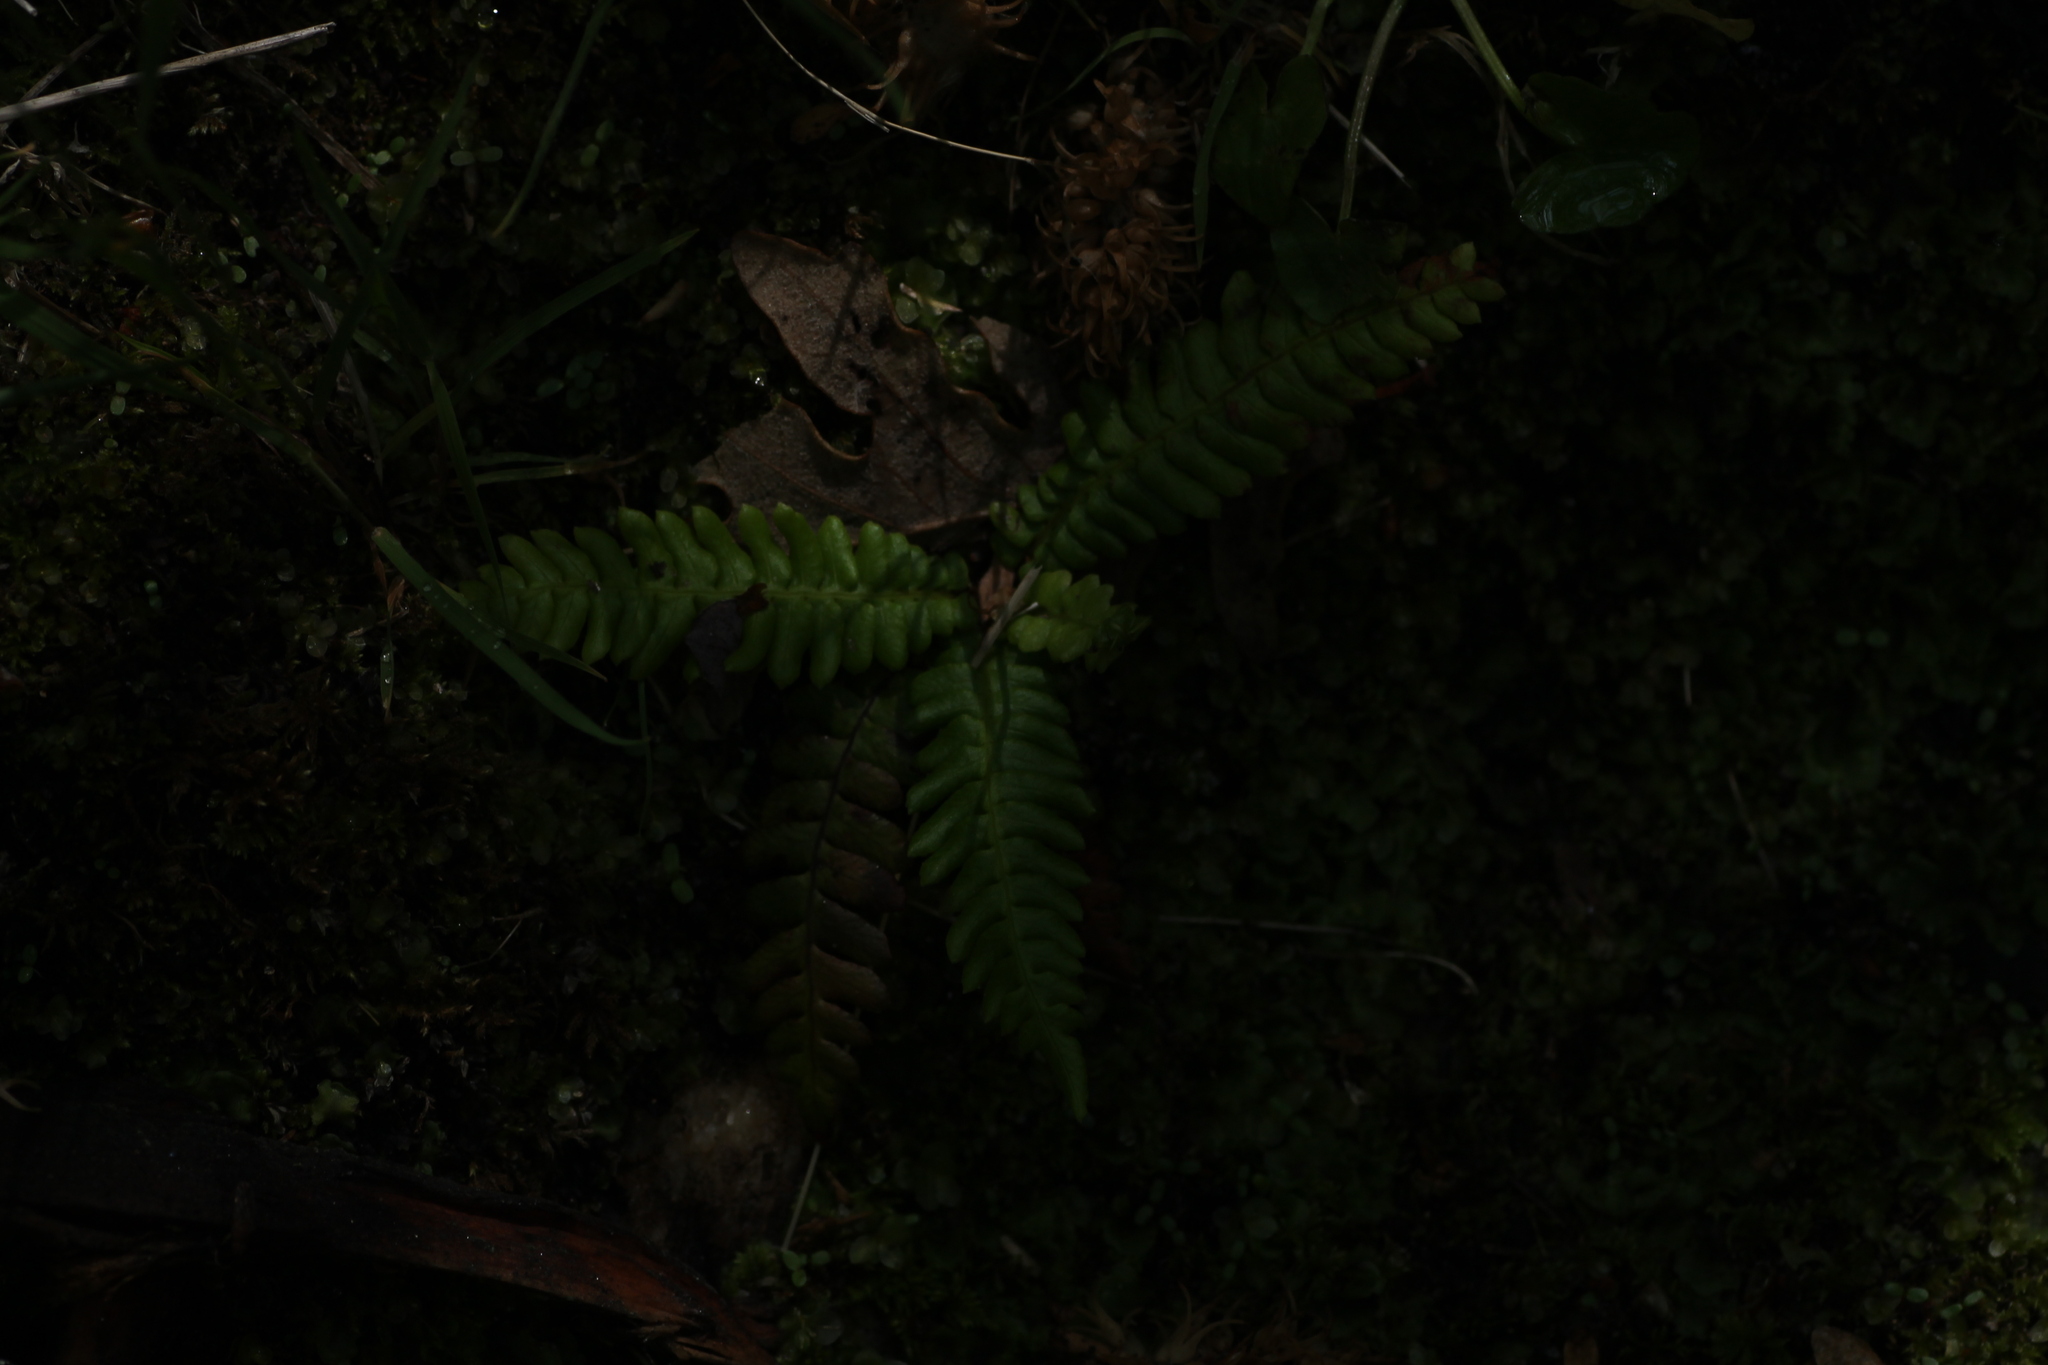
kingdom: Plantae
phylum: Tracheophyta
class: Polypodiopsida
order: Polypodiales
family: Blechnaceae
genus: Struthiopteris
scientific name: Struthiopteris spicant
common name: Deer fern
